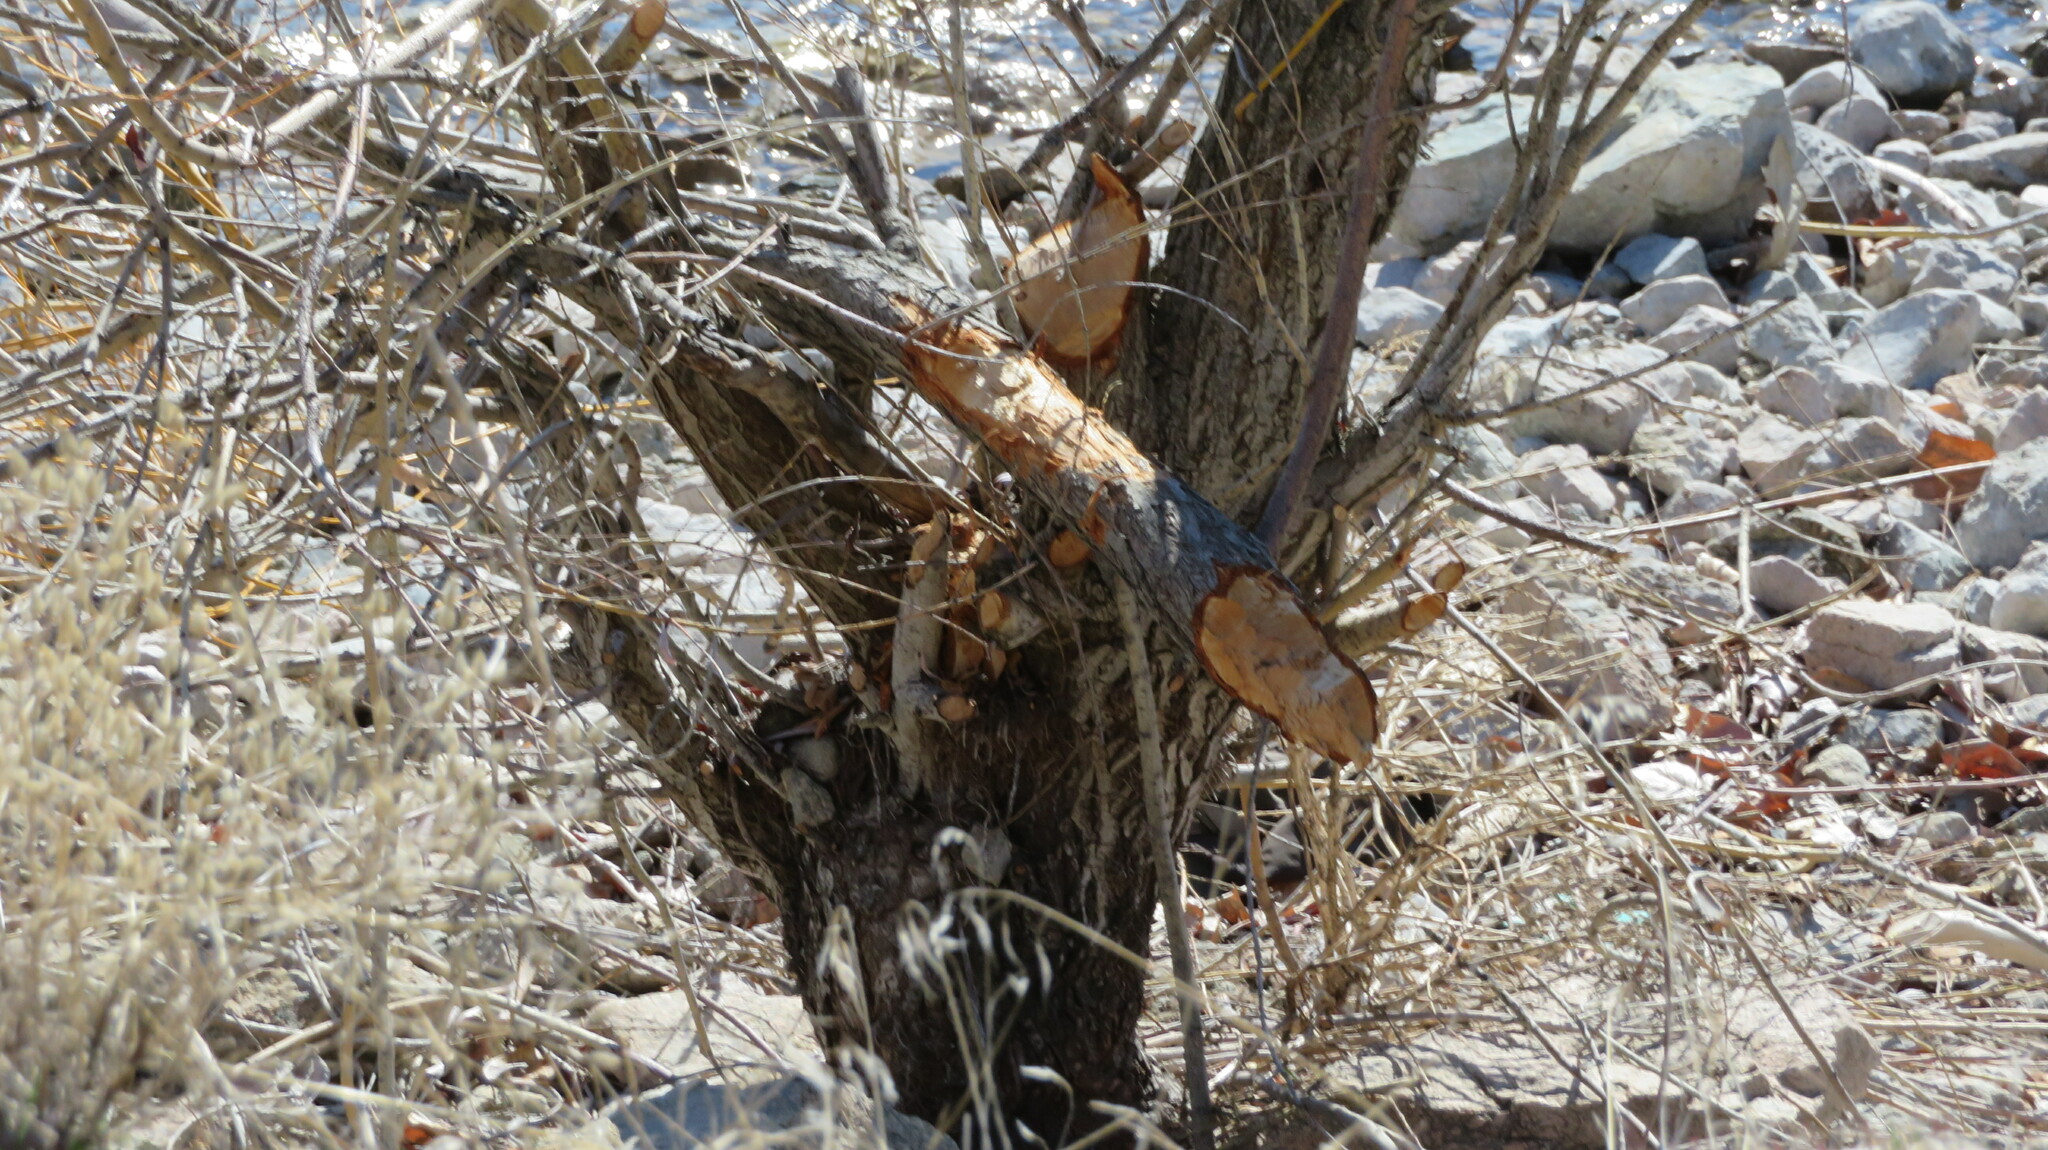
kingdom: Animalia
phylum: Chordata
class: Mammalia
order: Rodentia
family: Castoridae
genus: Castor
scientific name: Castor canadensis
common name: American beaver
